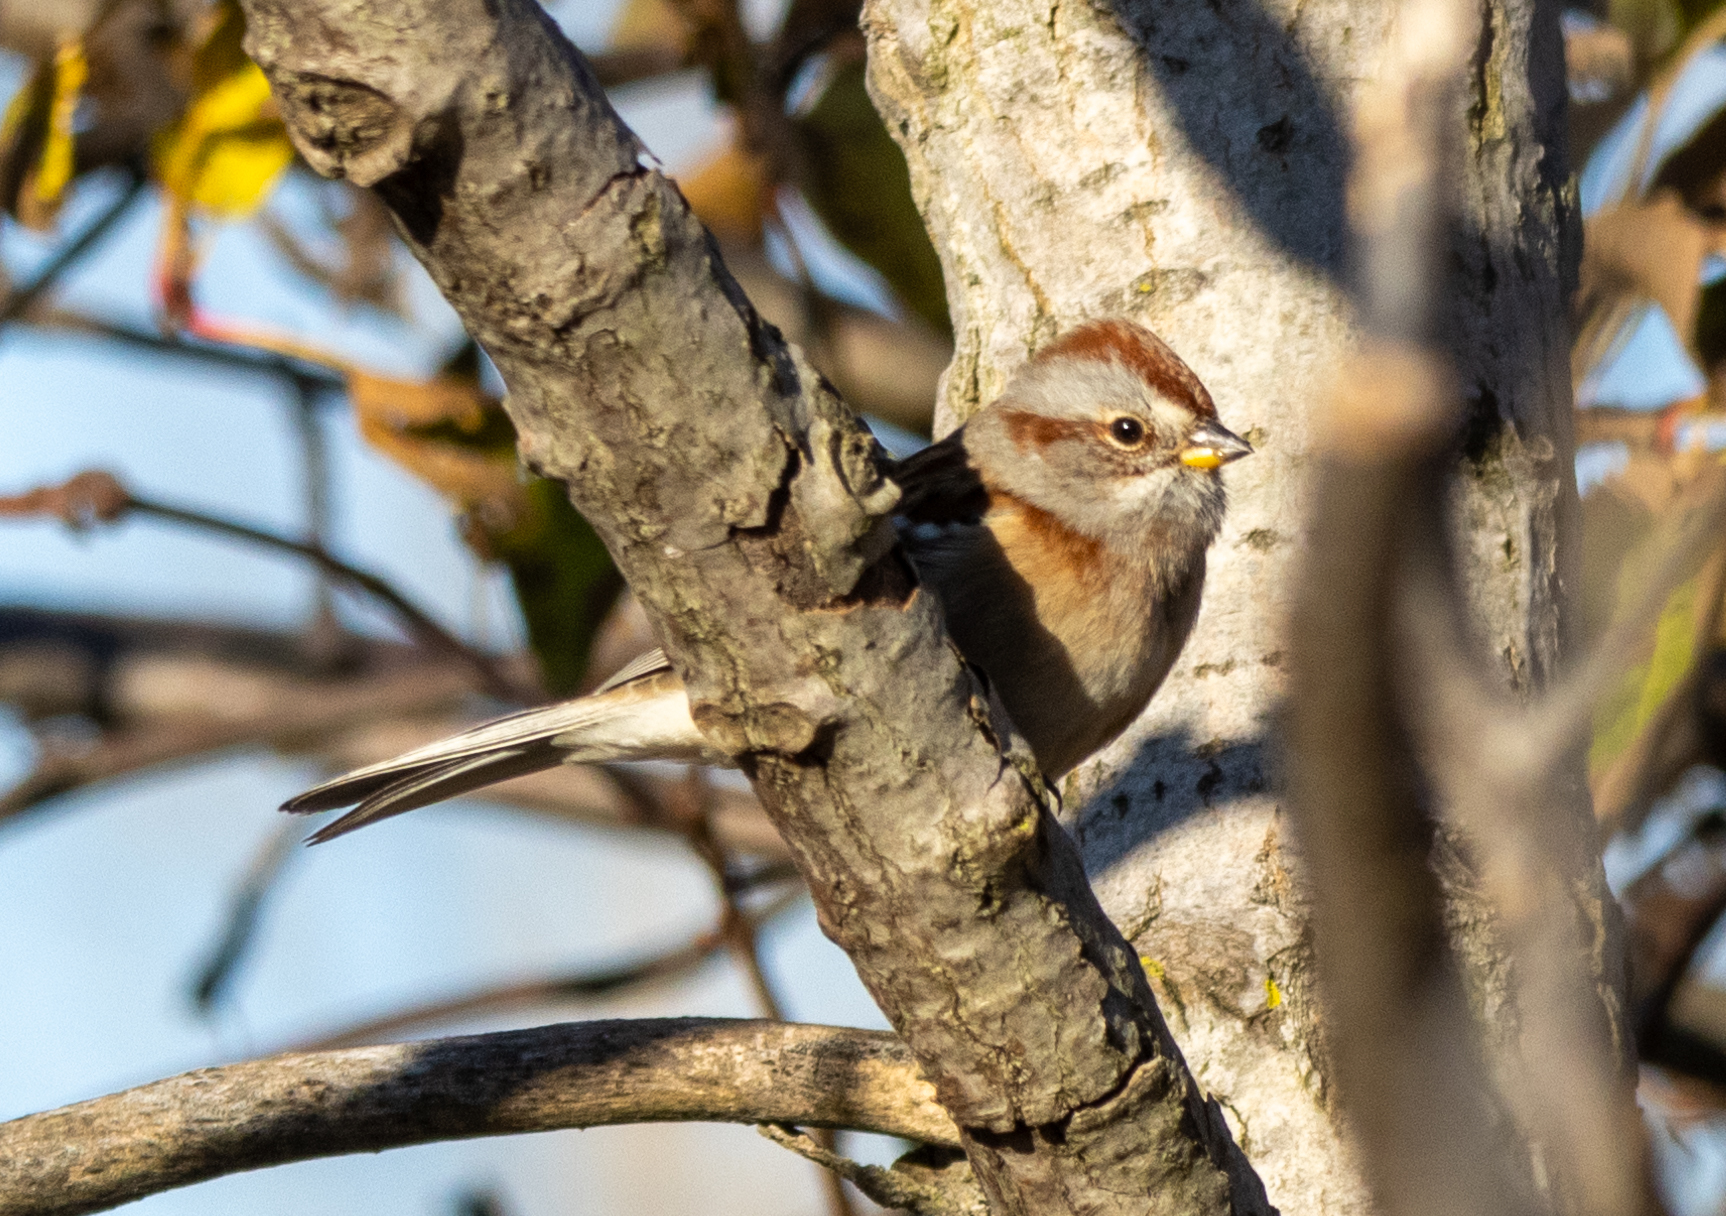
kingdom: Animalia
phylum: Chordata
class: Aves
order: Passeriformes
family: Passerellidae
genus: Spizelloides
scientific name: Spizelloides arborea
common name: American tree sparrow
